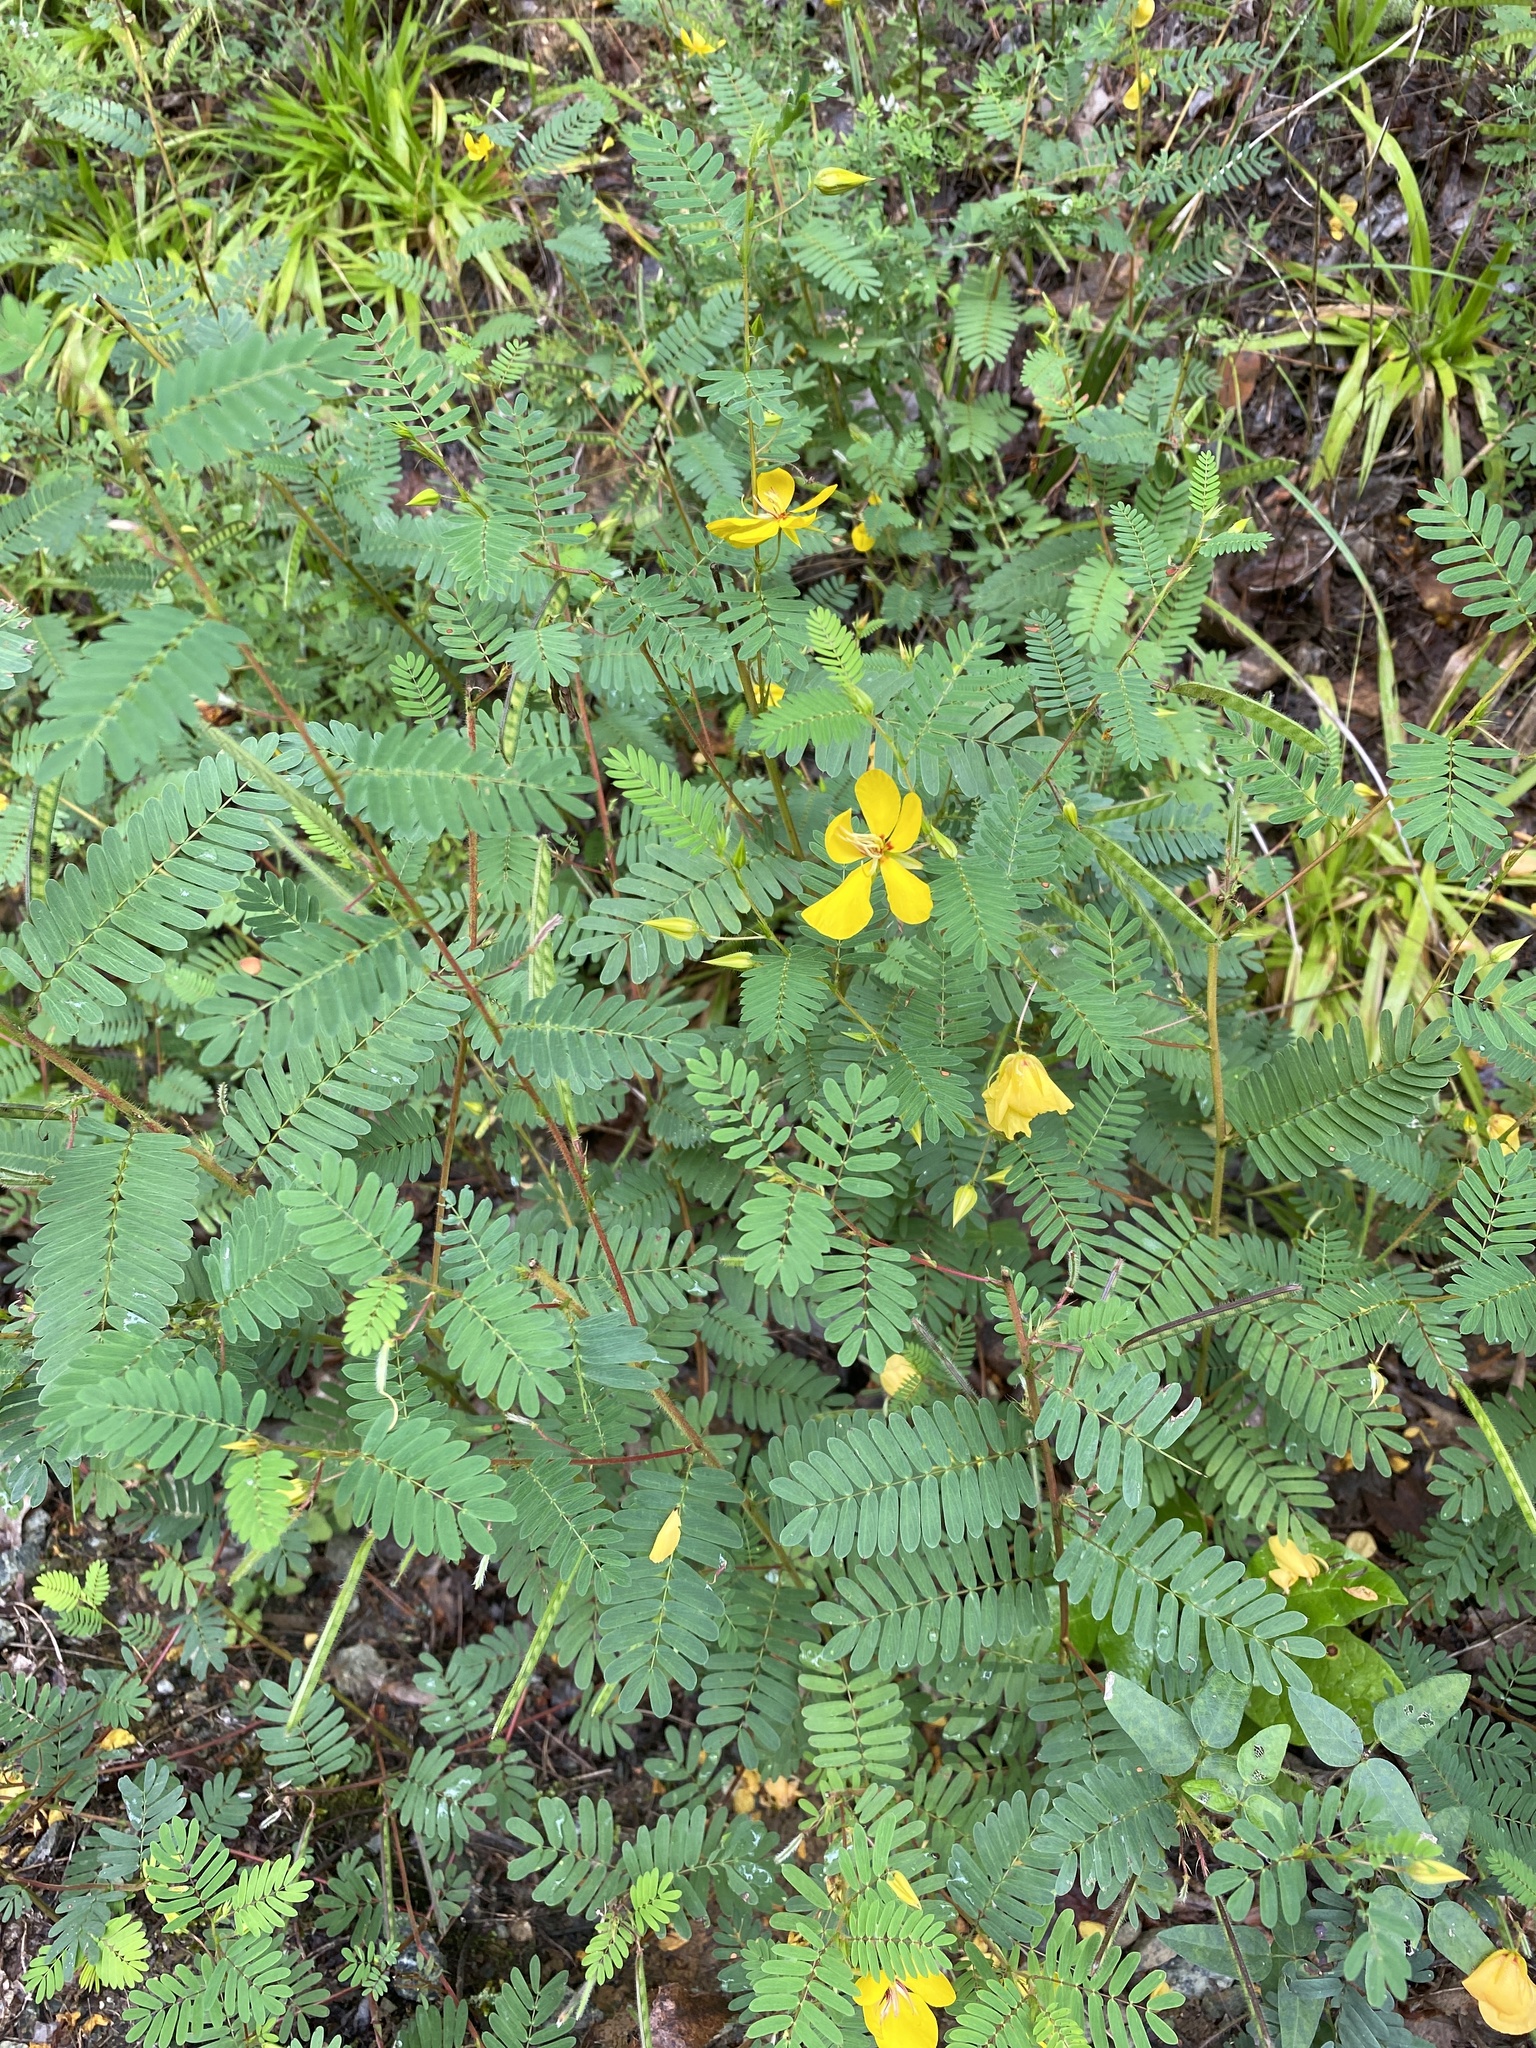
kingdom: Plantae
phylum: Tracheophyta
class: Magnoliopsida
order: Fabales
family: Fabaceae
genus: Chamaecrista
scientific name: Chamaecrista fasciculata
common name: Golden cassia
